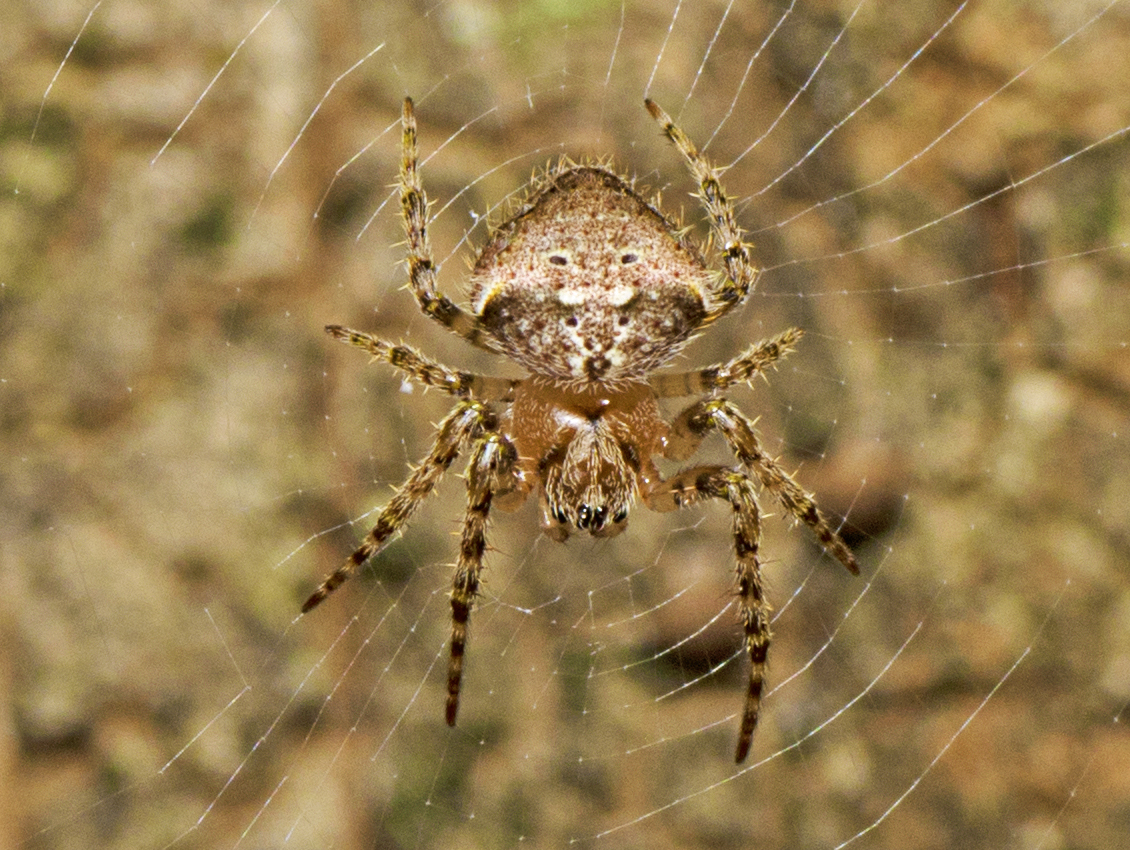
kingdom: Animalia
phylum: Arthropoda
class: Arachnida
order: Araneae
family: Araneidae
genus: Telaprocera
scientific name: Telaprocera maudae
